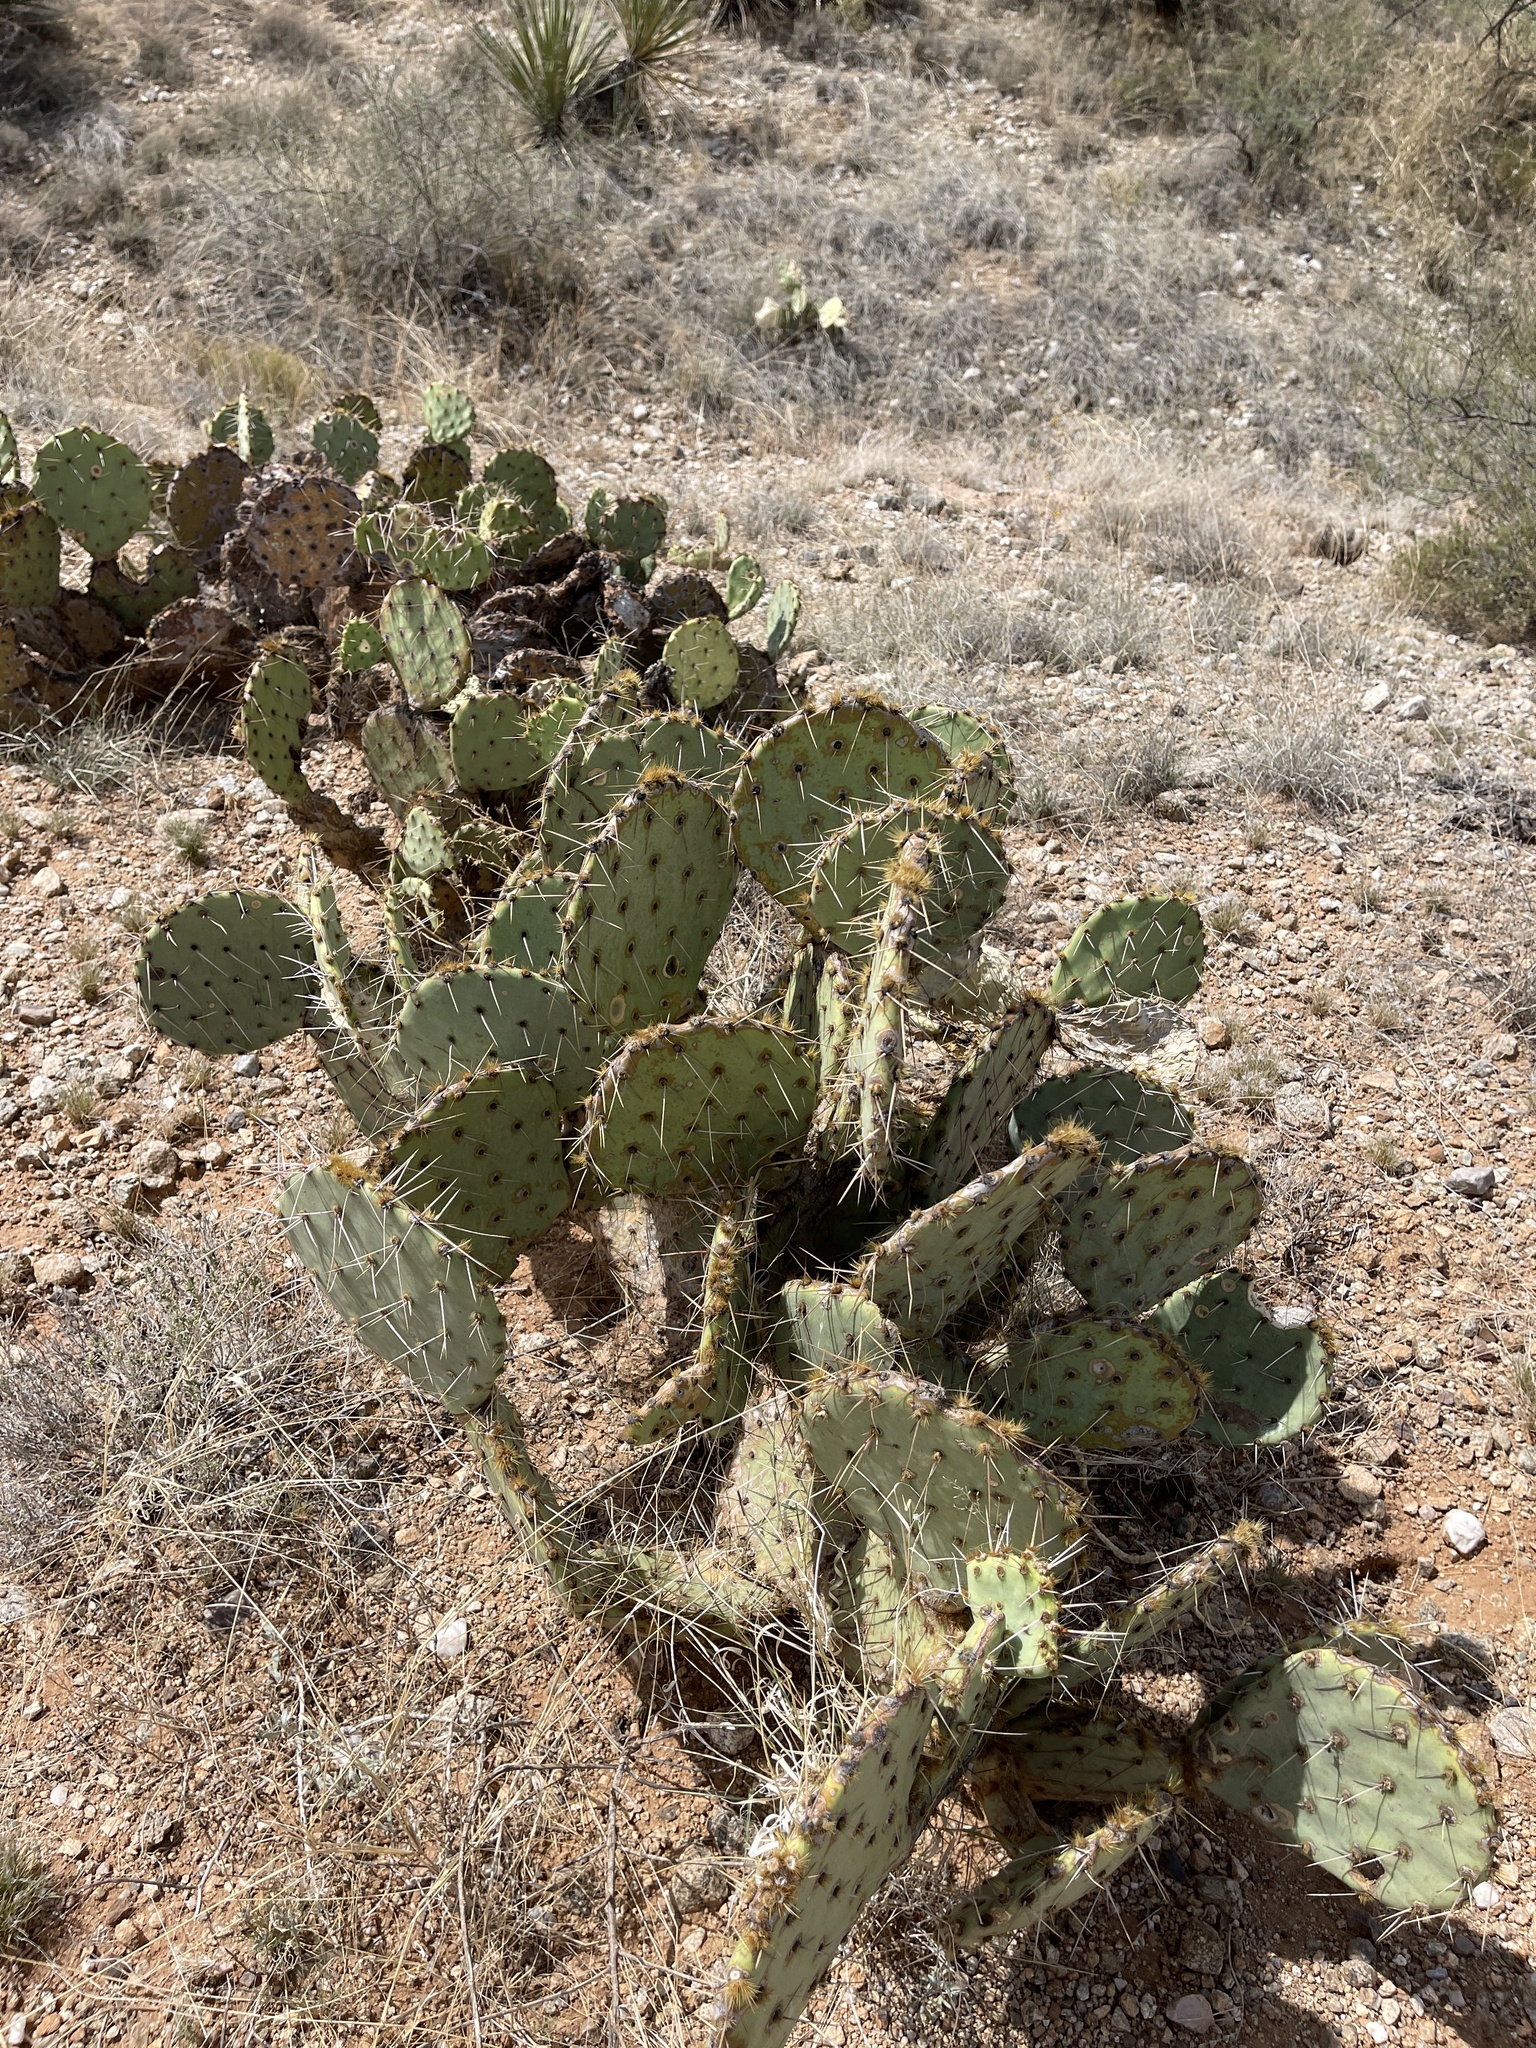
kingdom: Plantae
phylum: Tracheophyta
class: Magnoliopsida
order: Caryophyllales
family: Cactaceae
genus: Opuntia
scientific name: Opuntia phaeacantha
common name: New mexico prickly-pear
